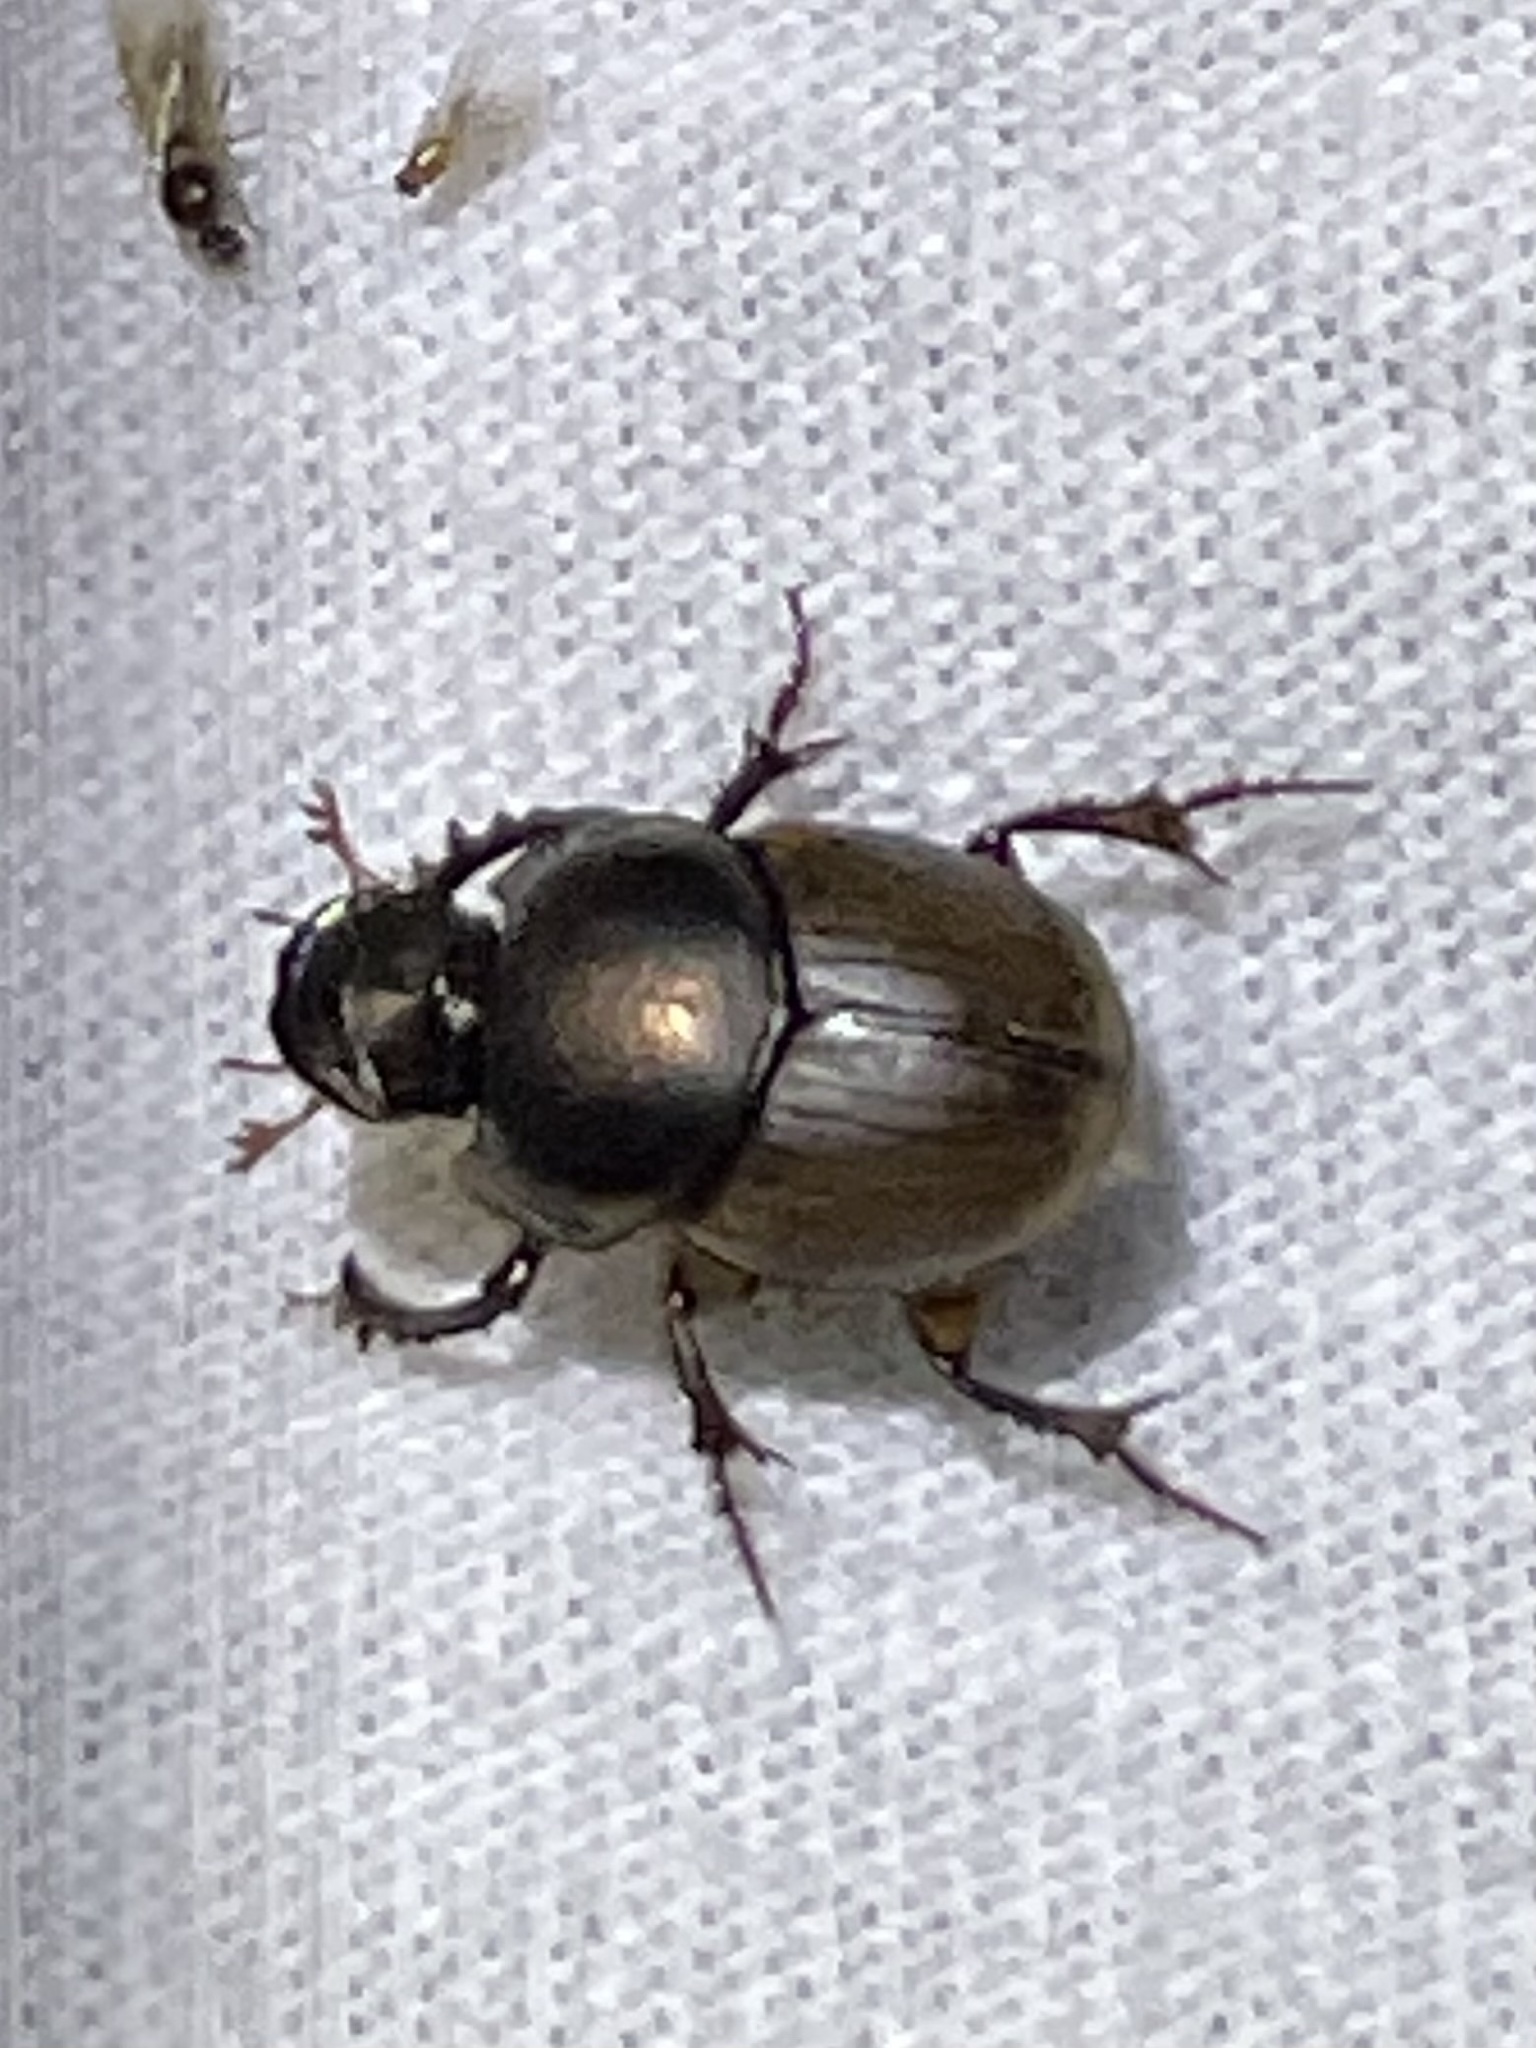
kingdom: Animalia
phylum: Arthropoda
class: Insecta
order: Coleoptera
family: Scarabaeidae
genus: Digitonthophagus
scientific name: Digitonthophagus gazella
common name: Brown dung beetle
